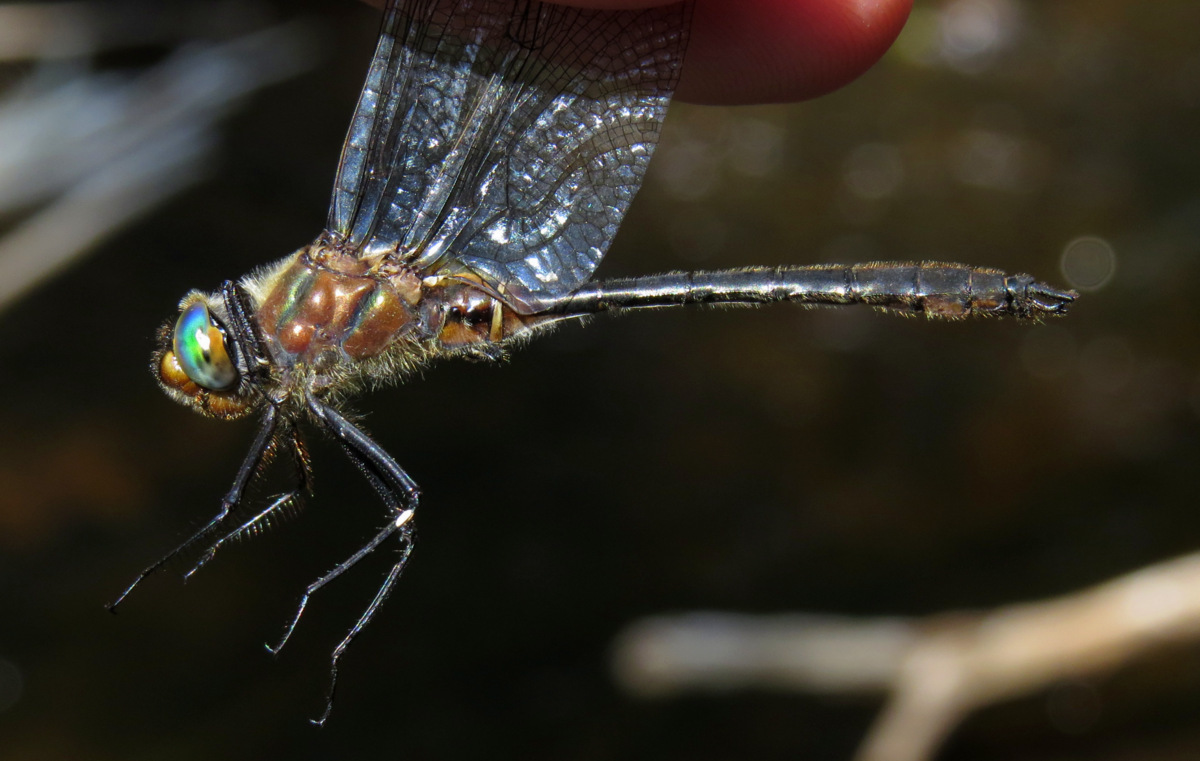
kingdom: Animalia
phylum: Arthropoda
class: Insecta
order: Odonata
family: Corduliidae
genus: Cordulia
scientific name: Cordulia shurtleffii
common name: American emerald
